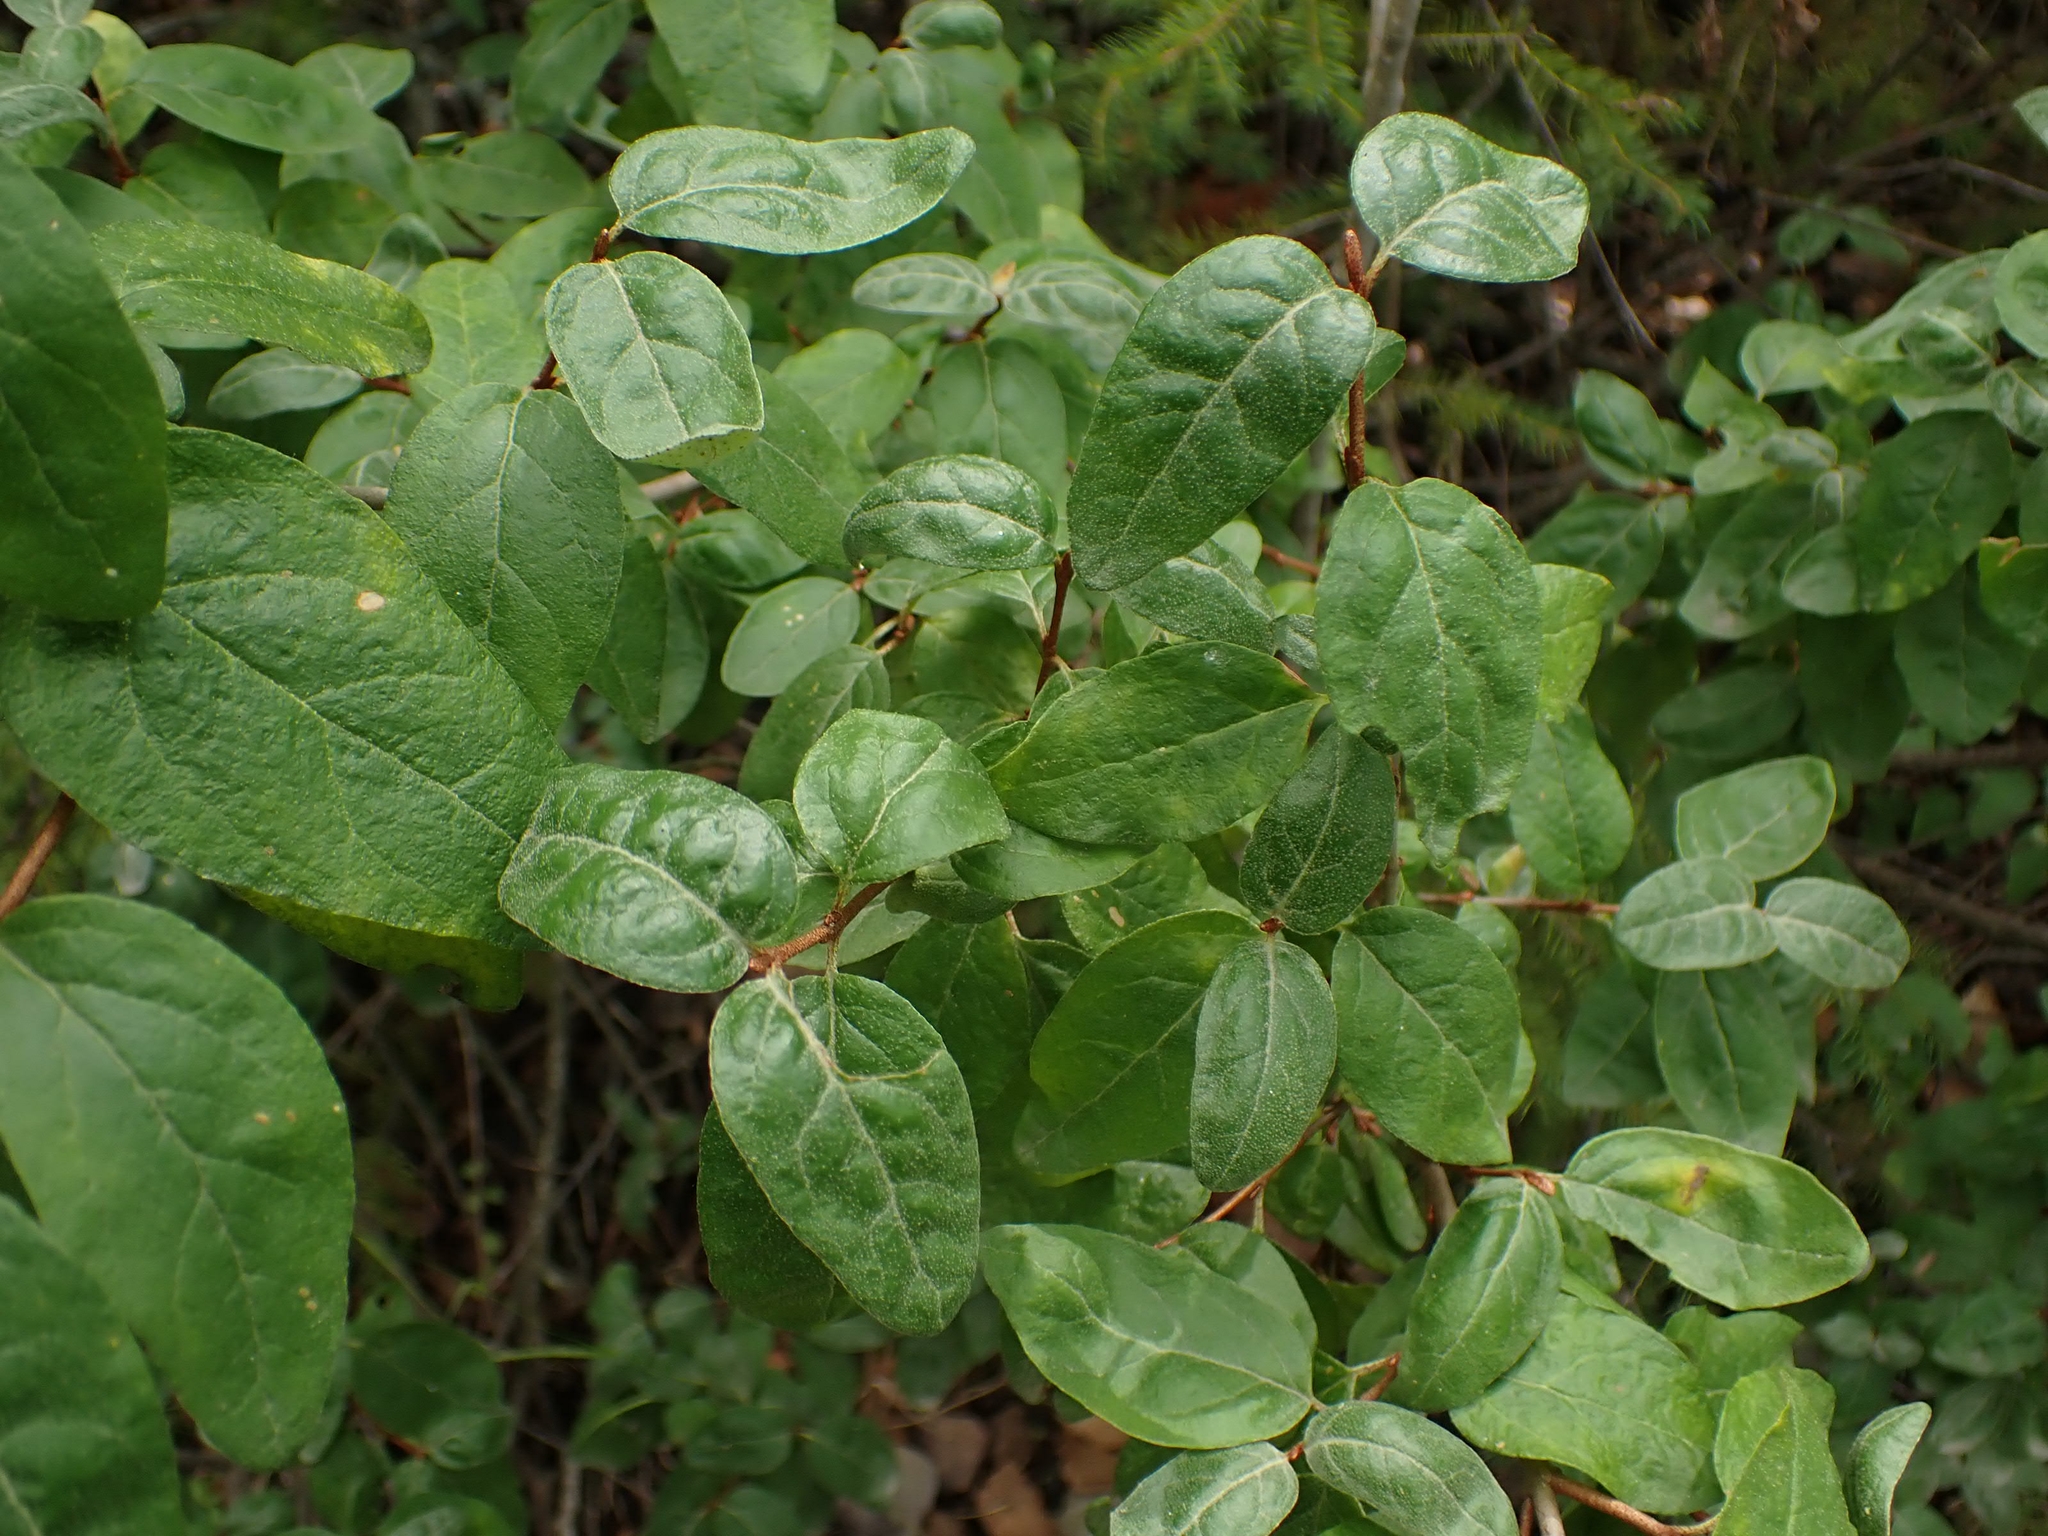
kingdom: Plantae
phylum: Tracheophyta
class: Magnoliopsida
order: Rosales
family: Elaeagnaceae
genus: Shepherdia
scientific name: Shepherdia canadensis
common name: Soapberry
